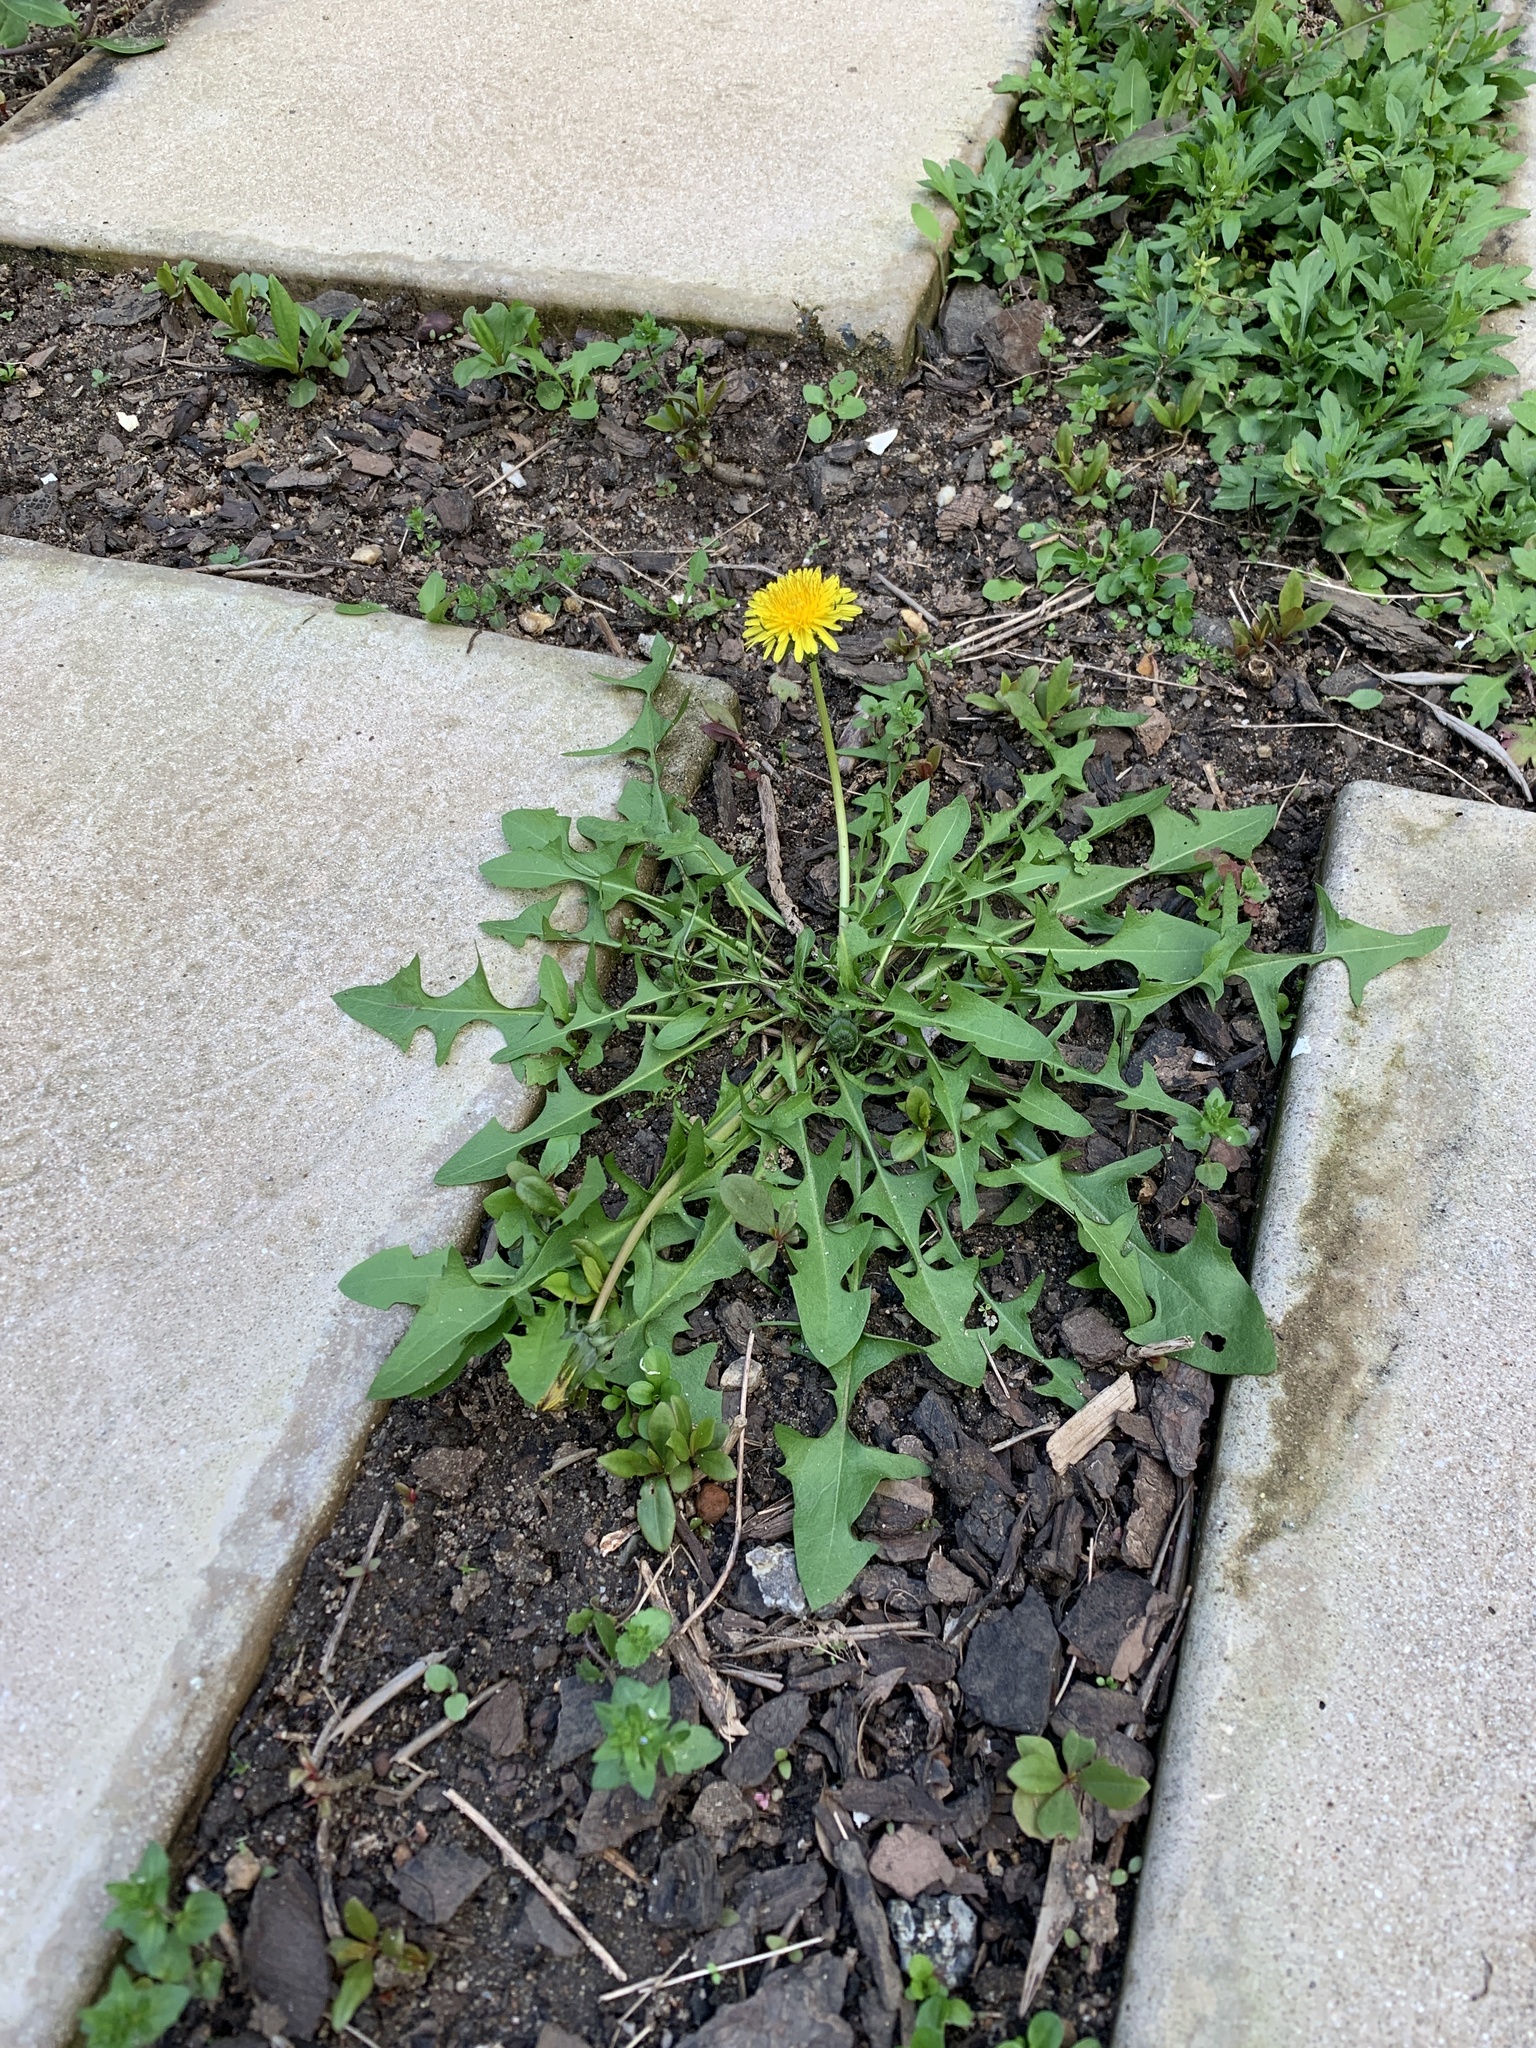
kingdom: Plantae
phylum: Tracheophyta
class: Magnoliopsida
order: Asterales
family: Asteraceae
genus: Taraxacum
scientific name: Taraxacum officinale
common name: Common dandelion
